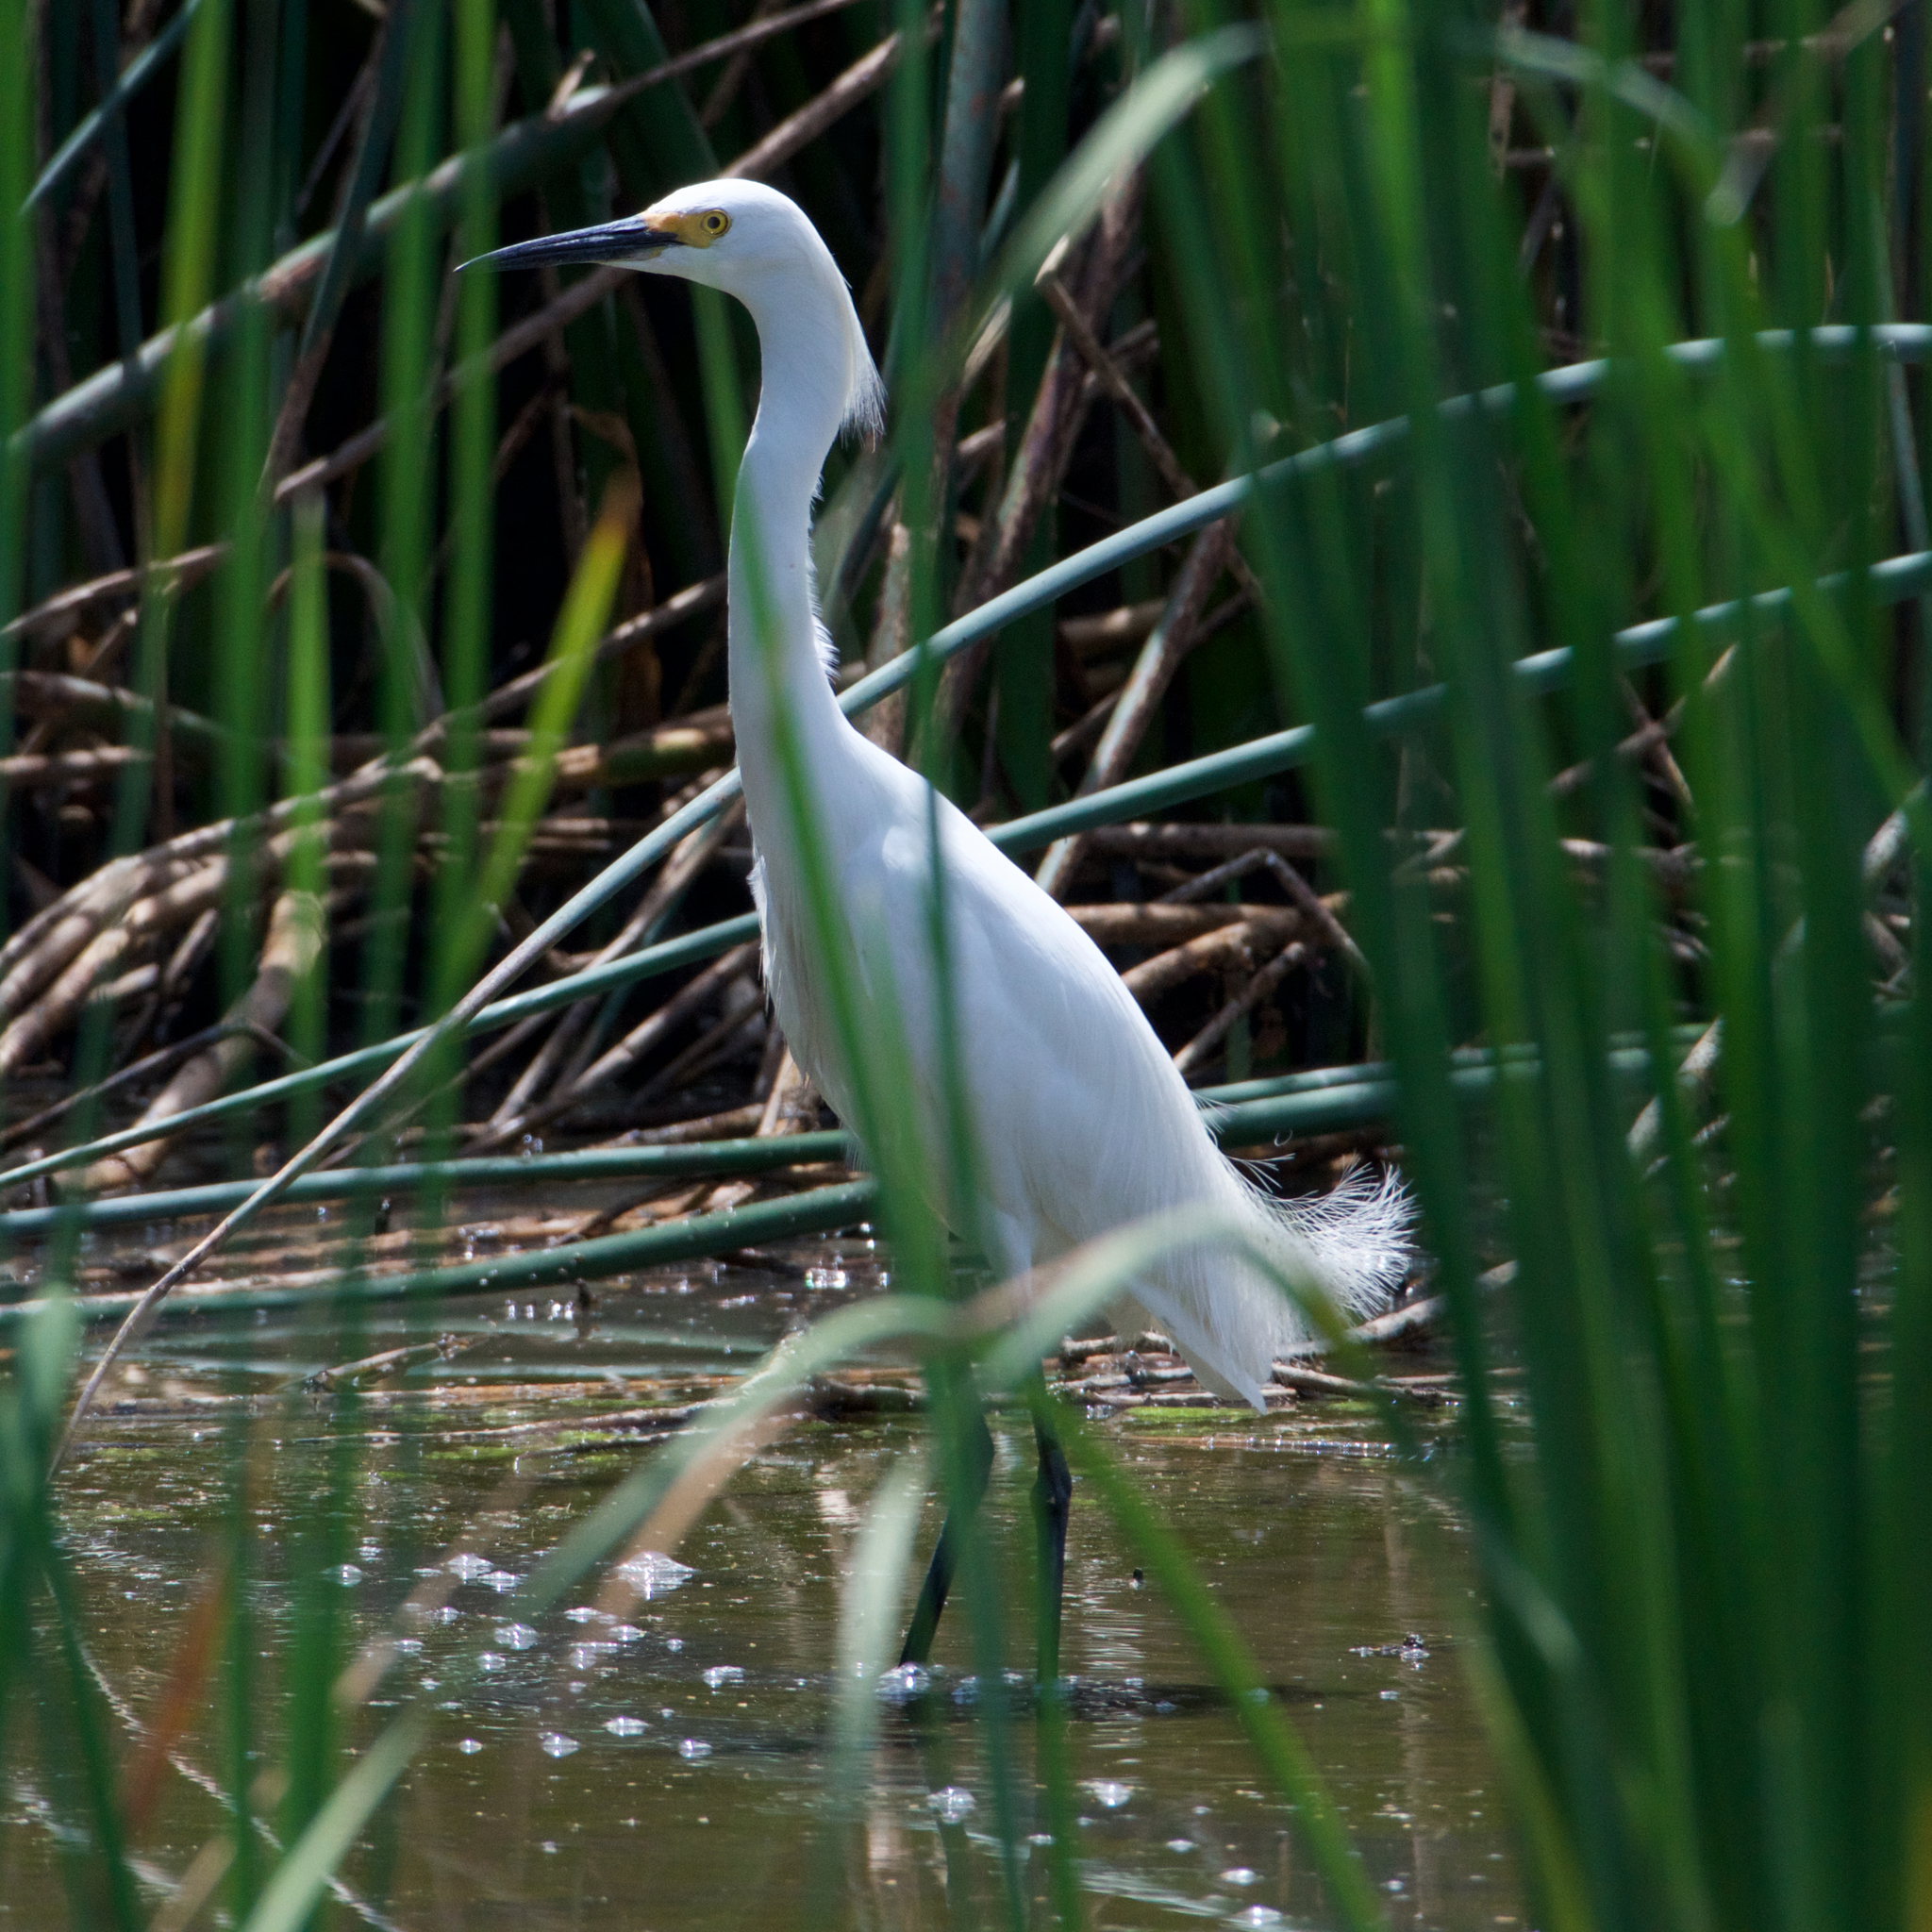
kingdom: Animalia
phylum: Chordata
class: Aves
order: Pelecaniformes
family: Ardeidae
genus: Egretta
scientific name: Egretta thula
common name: Snowy egret
